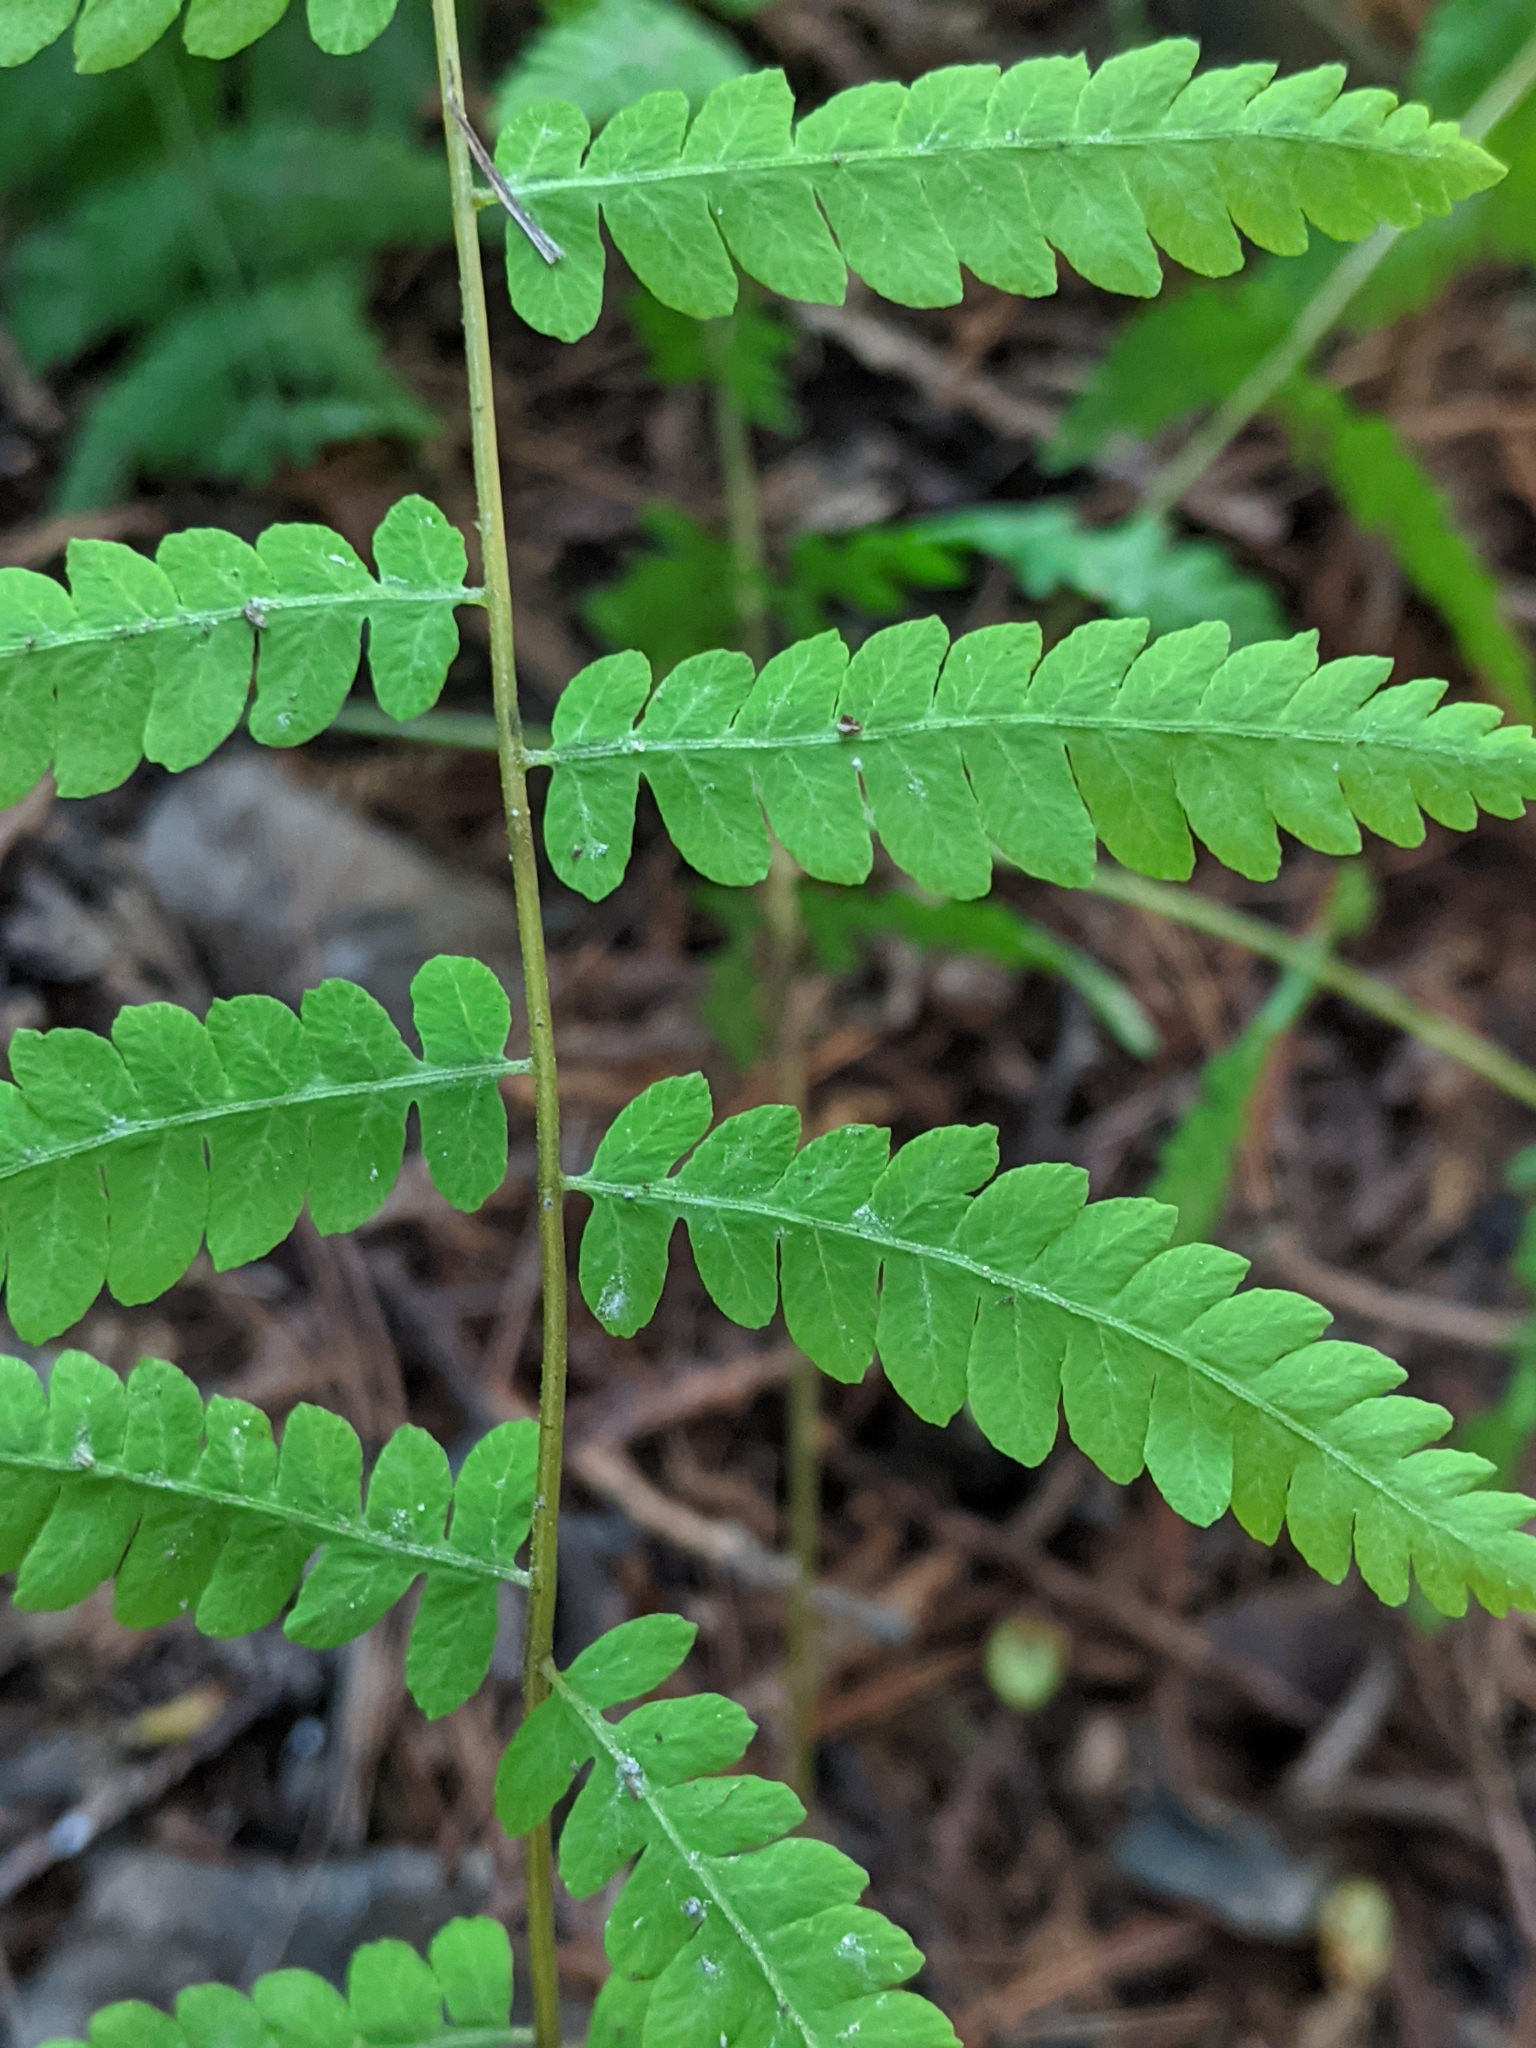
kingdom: Plantae
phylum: Tracheophyta
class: Polypodiopsida
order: Polypodiales
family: Thelypteridaceae
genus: Thelypteris
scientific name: Thelypteris palustris
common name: Marsh fern
